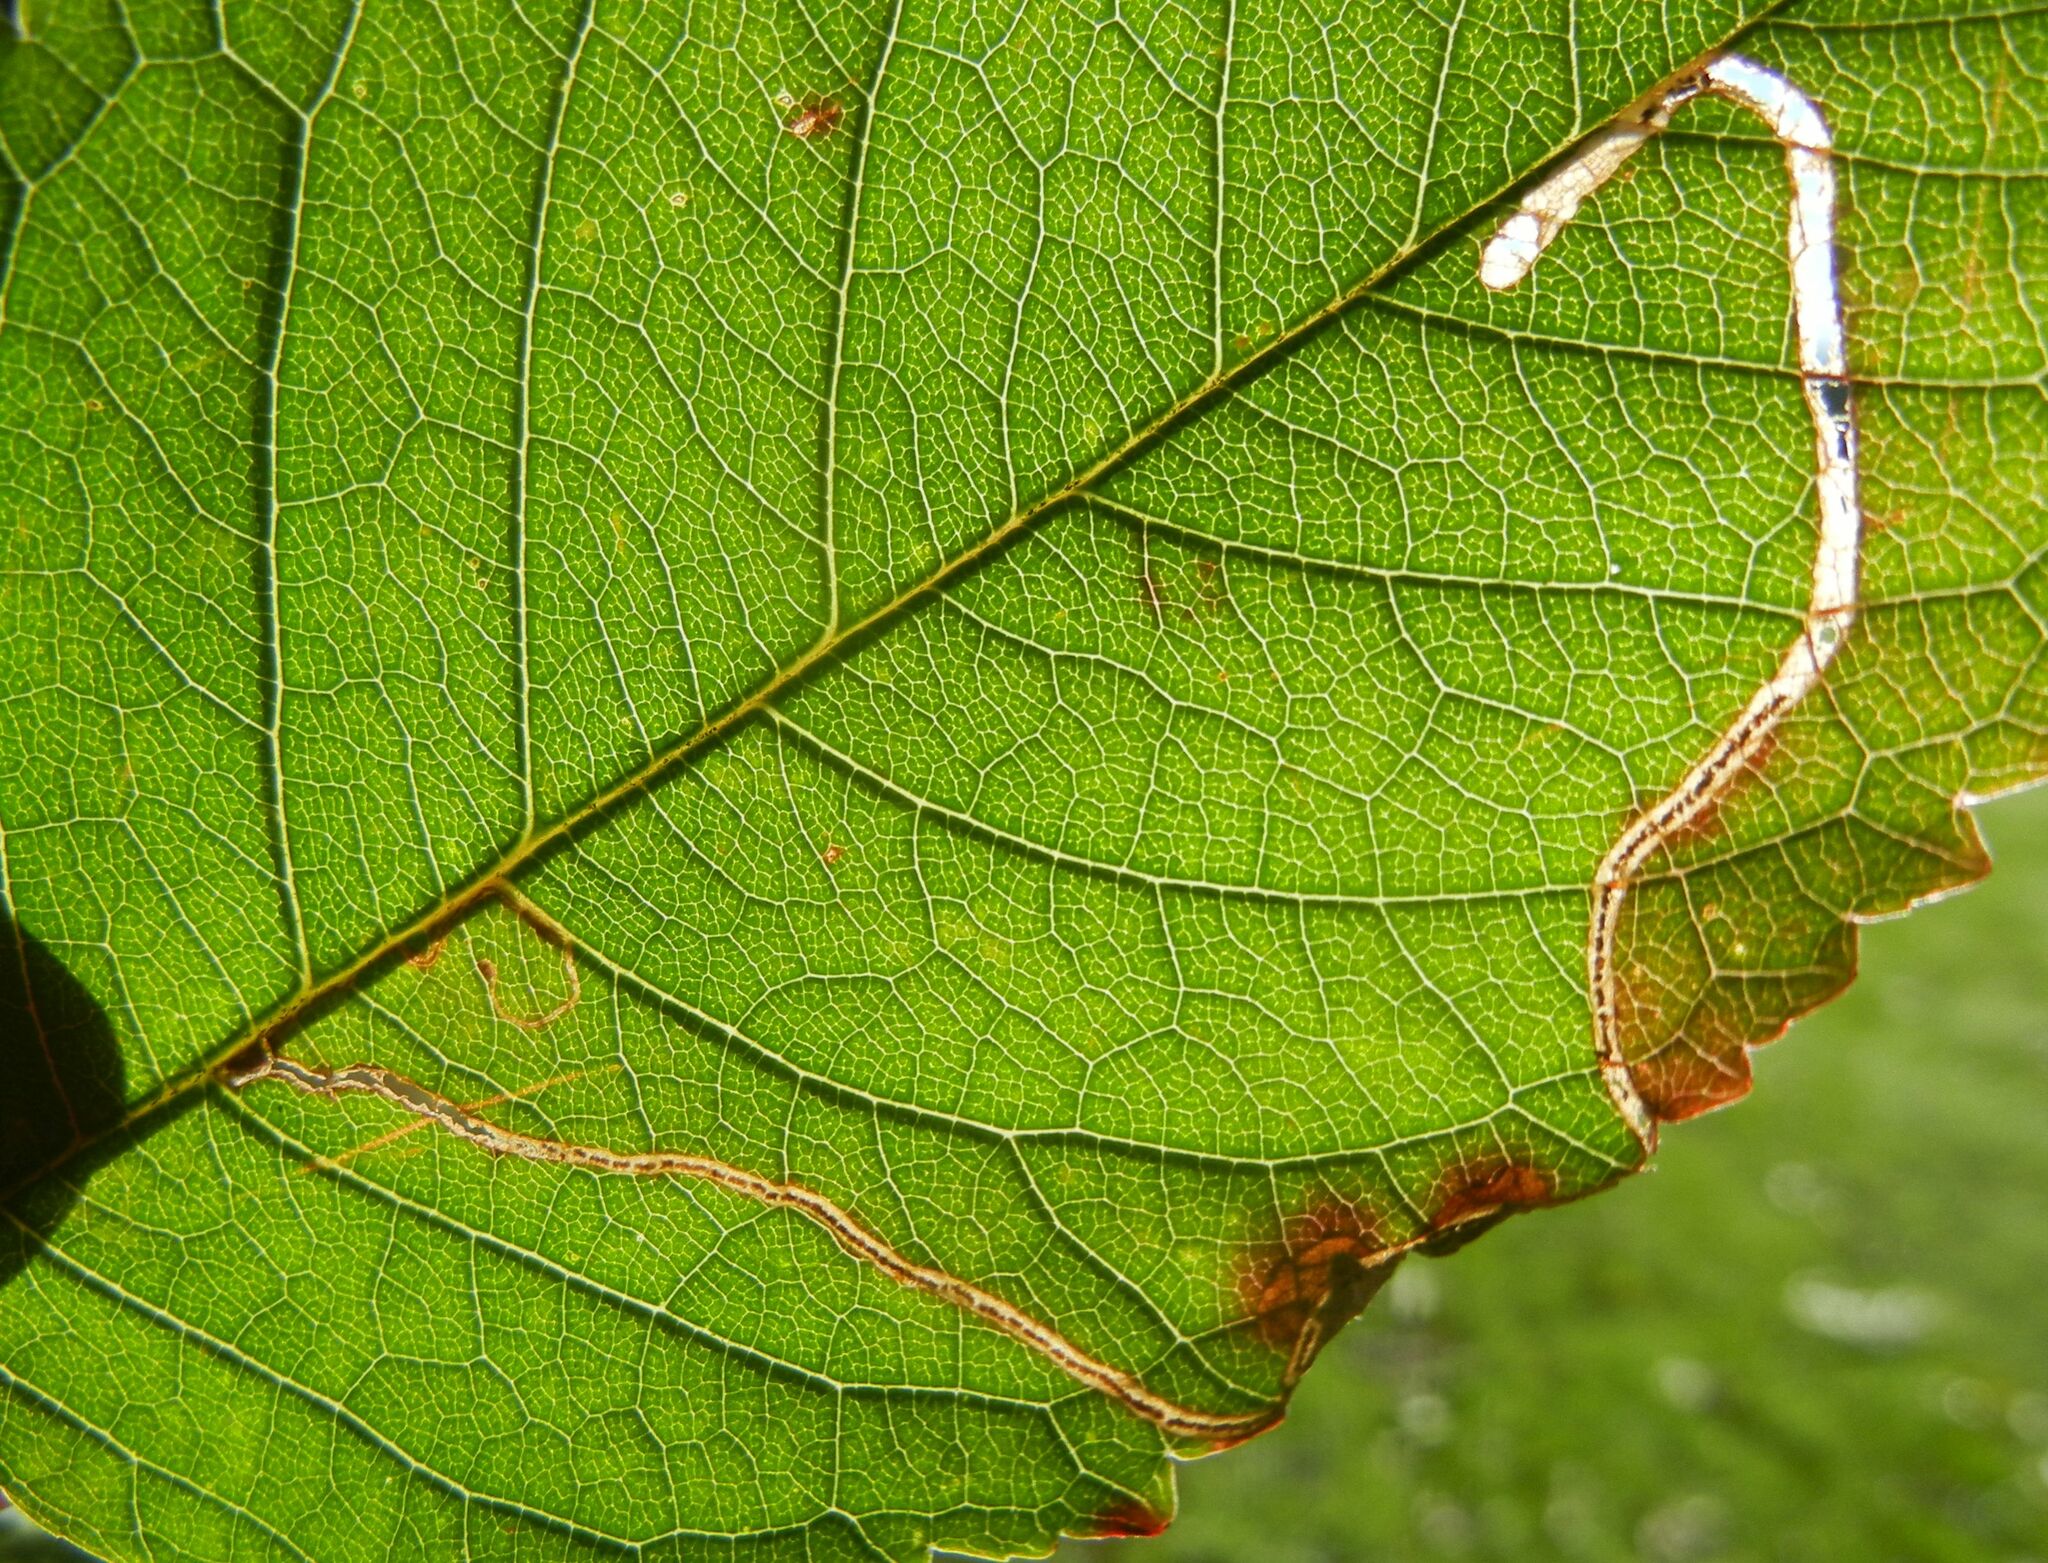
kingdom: Animalia
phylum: Arthropoda
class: Insecta
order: Lepidoptera
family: Lyonetiidae
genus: Lyonetia
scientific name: Lyonetia clerkella
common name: Apple leaf miner
